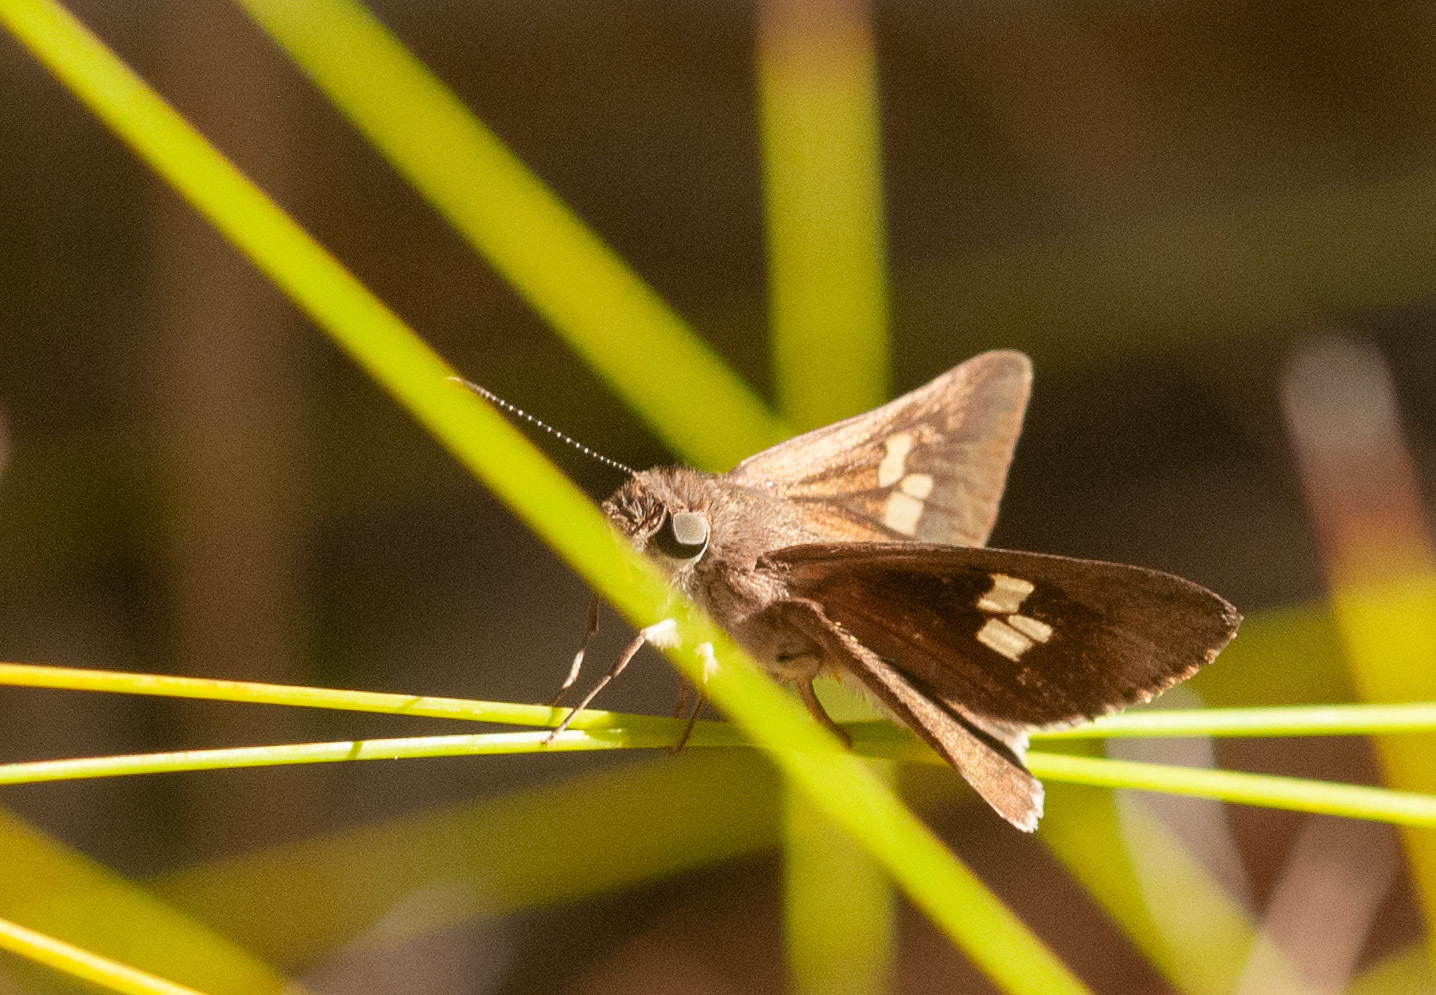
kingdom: Animalia
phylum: Arthropoda
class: Insecta
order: Lepidoptera
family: Hesperiidae
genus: Mesodina
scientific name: Mesodina halyzia
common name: Eastern iris-skipper
